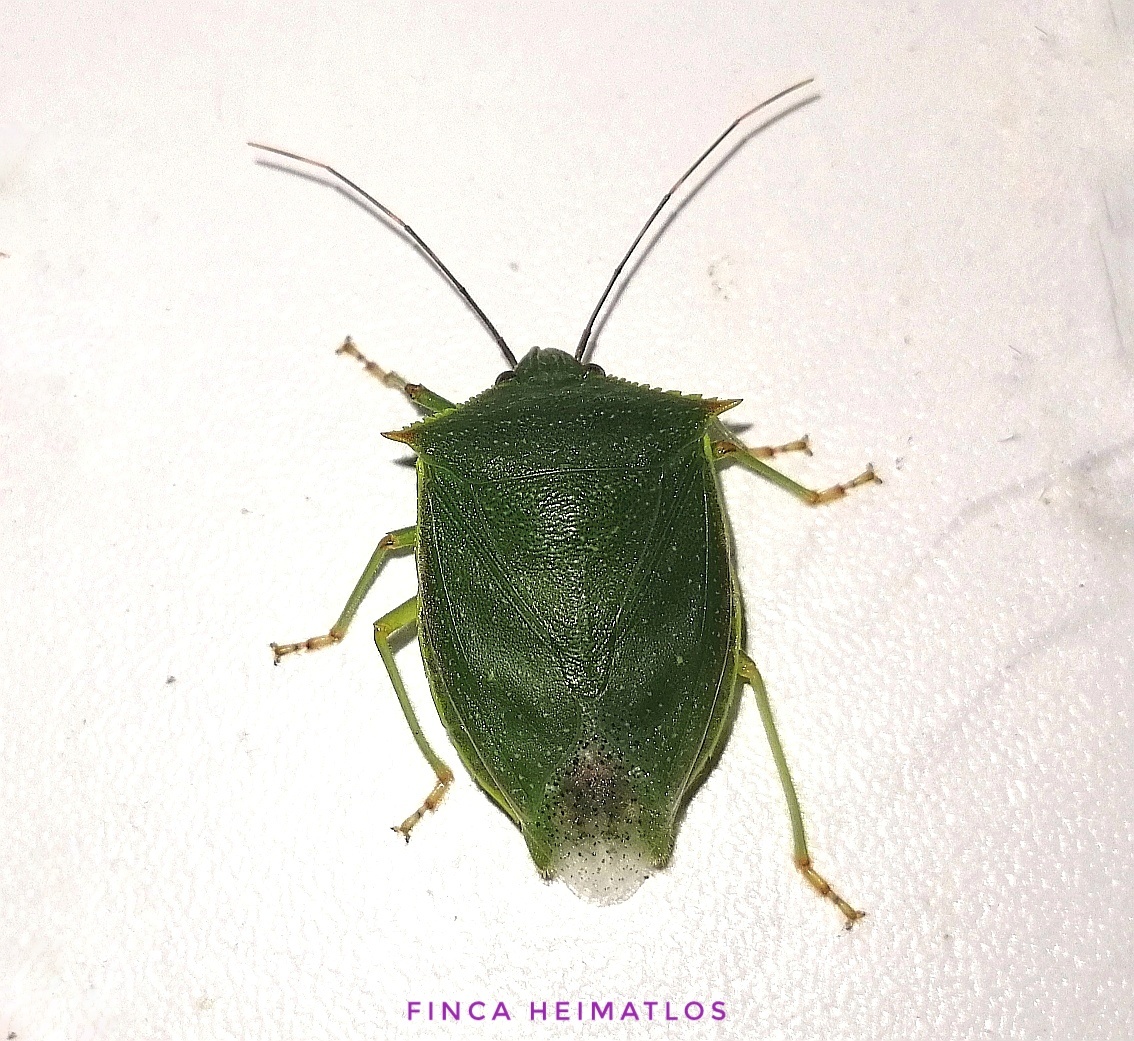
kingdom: Animalia
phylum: Arthropoda
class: Insecta
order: Hemiptera
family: Pentatomidae
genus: Loxa
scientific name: Loxa virescens
